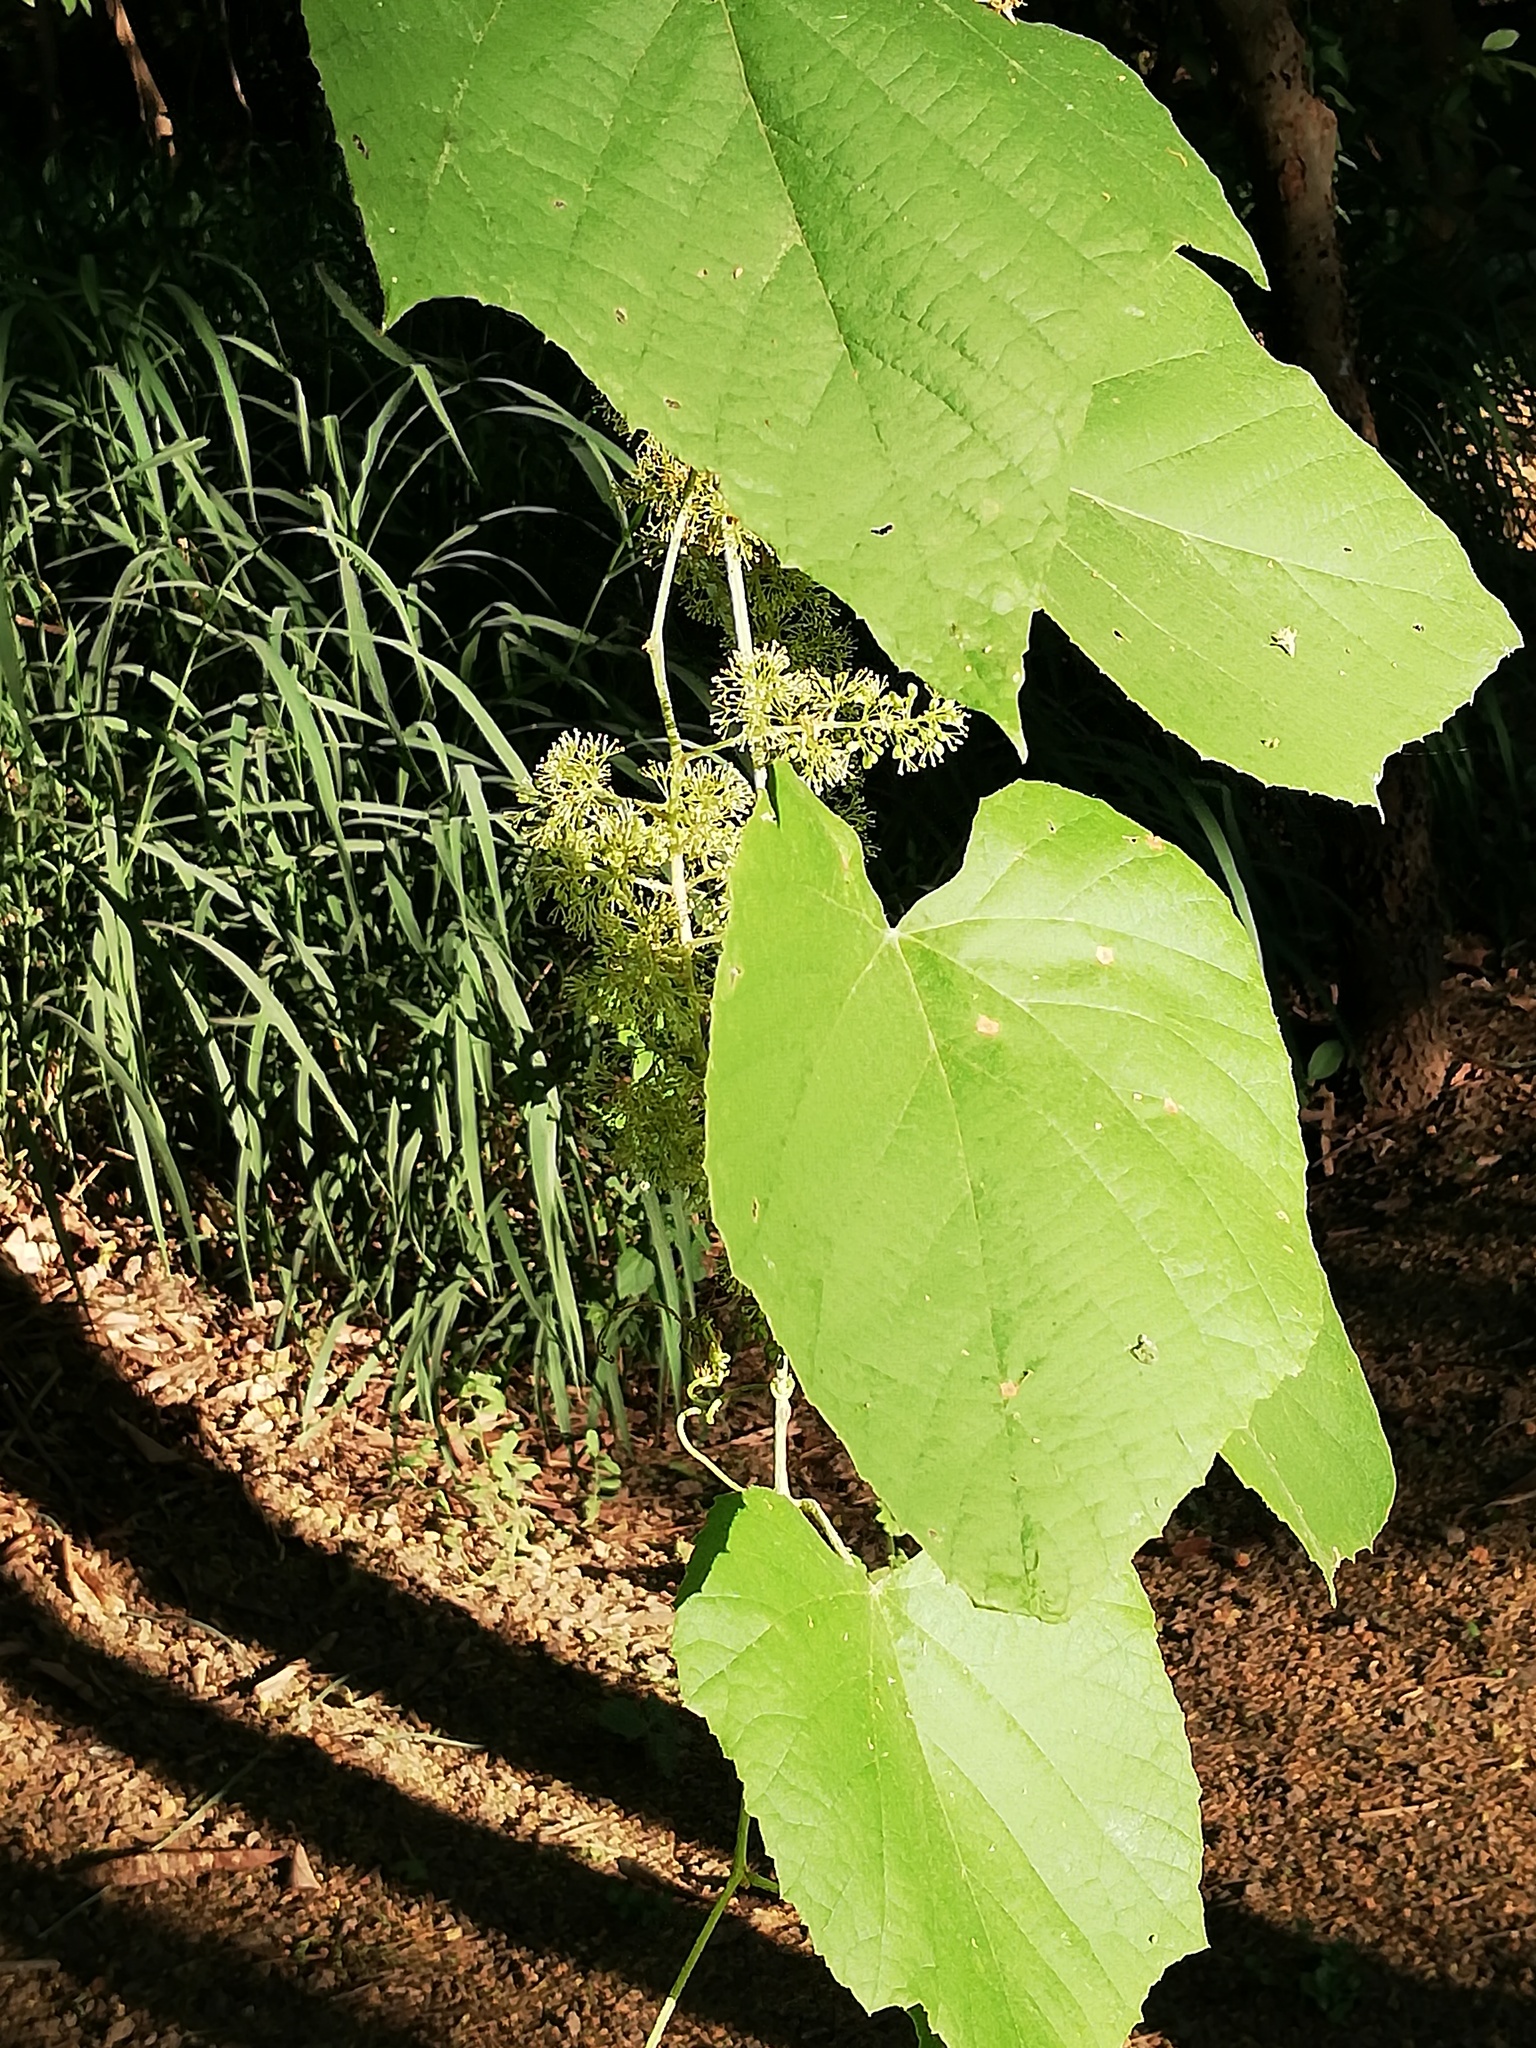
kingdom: Plantae
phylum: Tracheophyta
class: Magnoliopsida
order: Vitales
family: Vitaceae
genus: Vitis
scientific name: Vitis cinerea
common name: Ashy grape
